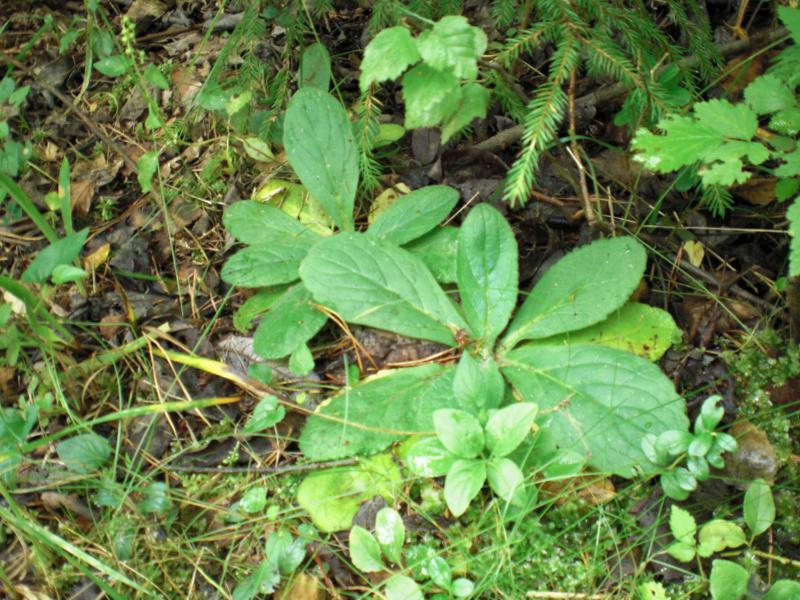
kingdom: Plantae
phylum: Tracheophyta
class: Magnoliopsida
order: Lamiales
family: Lamiaceae
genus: Ajuga
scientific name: Ajuga pyramidalis
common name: Pyramid bugle
